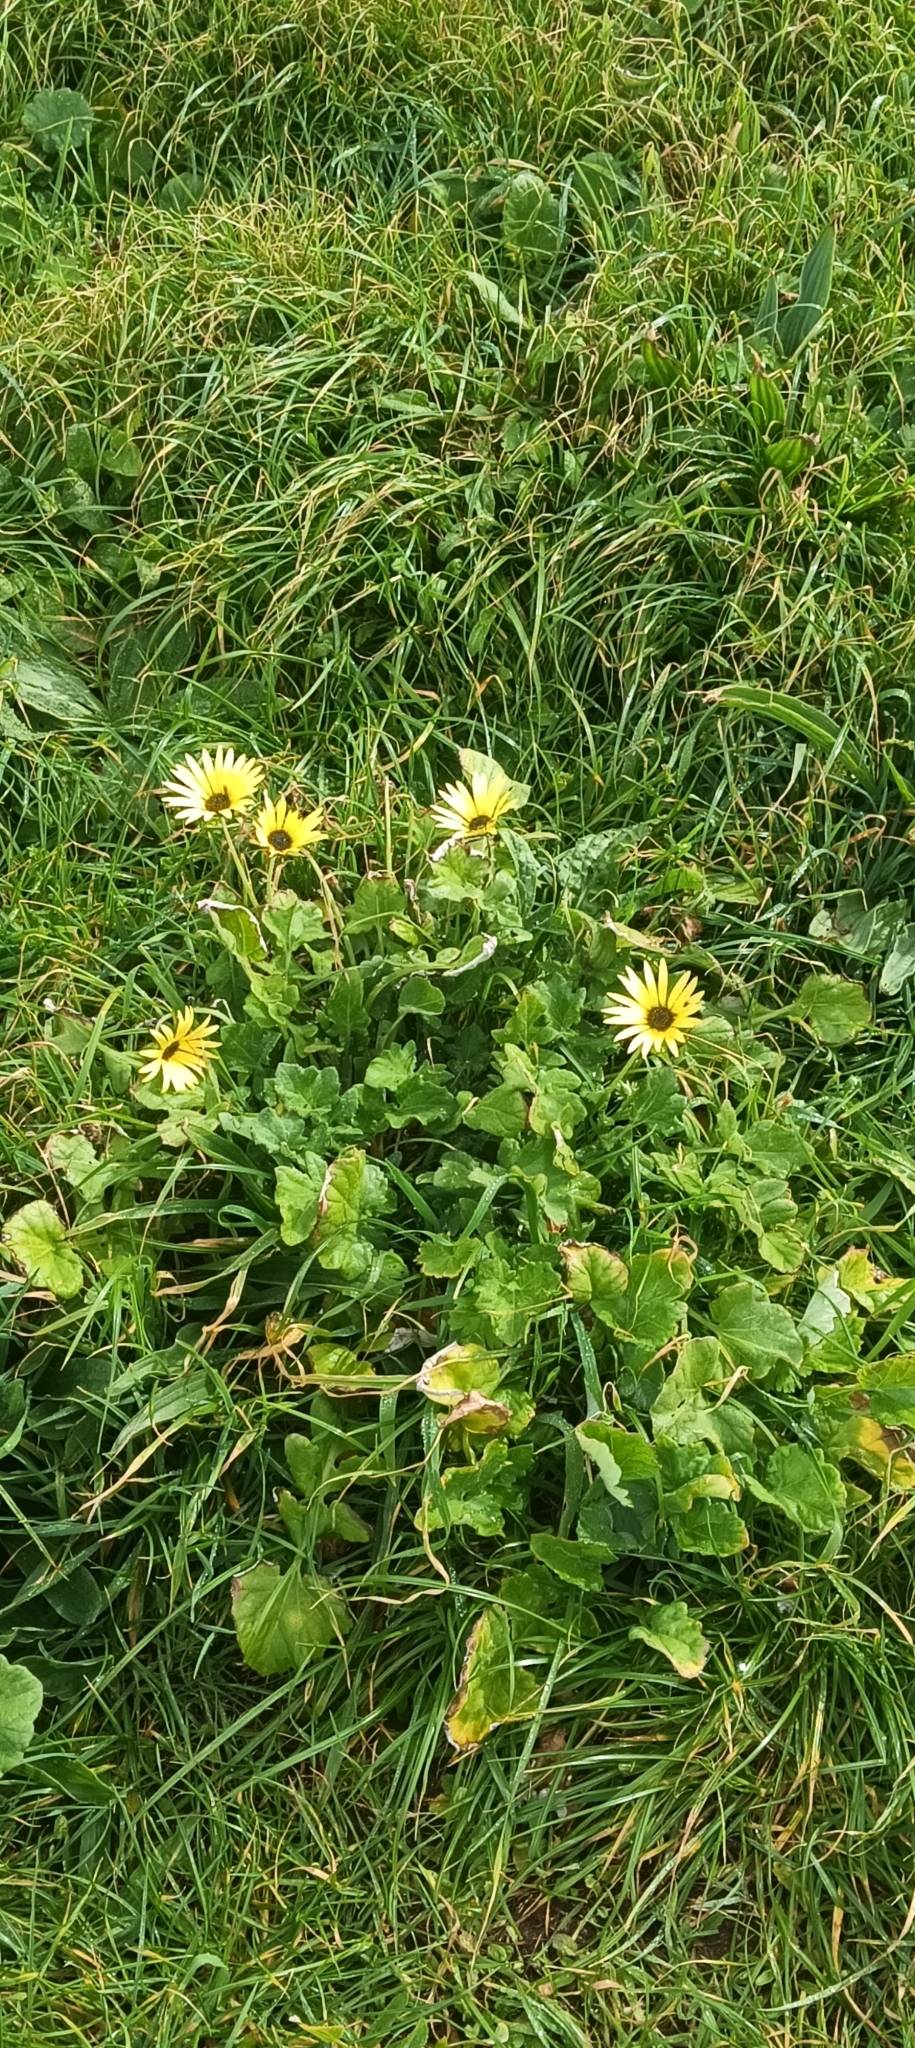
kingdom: Plantae
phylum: Tracheophyta
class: Magnoliopsida
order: Asterales
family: Asteraceae
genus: Arctotheca
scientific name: Arctotheca calendula
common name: Capeweed
